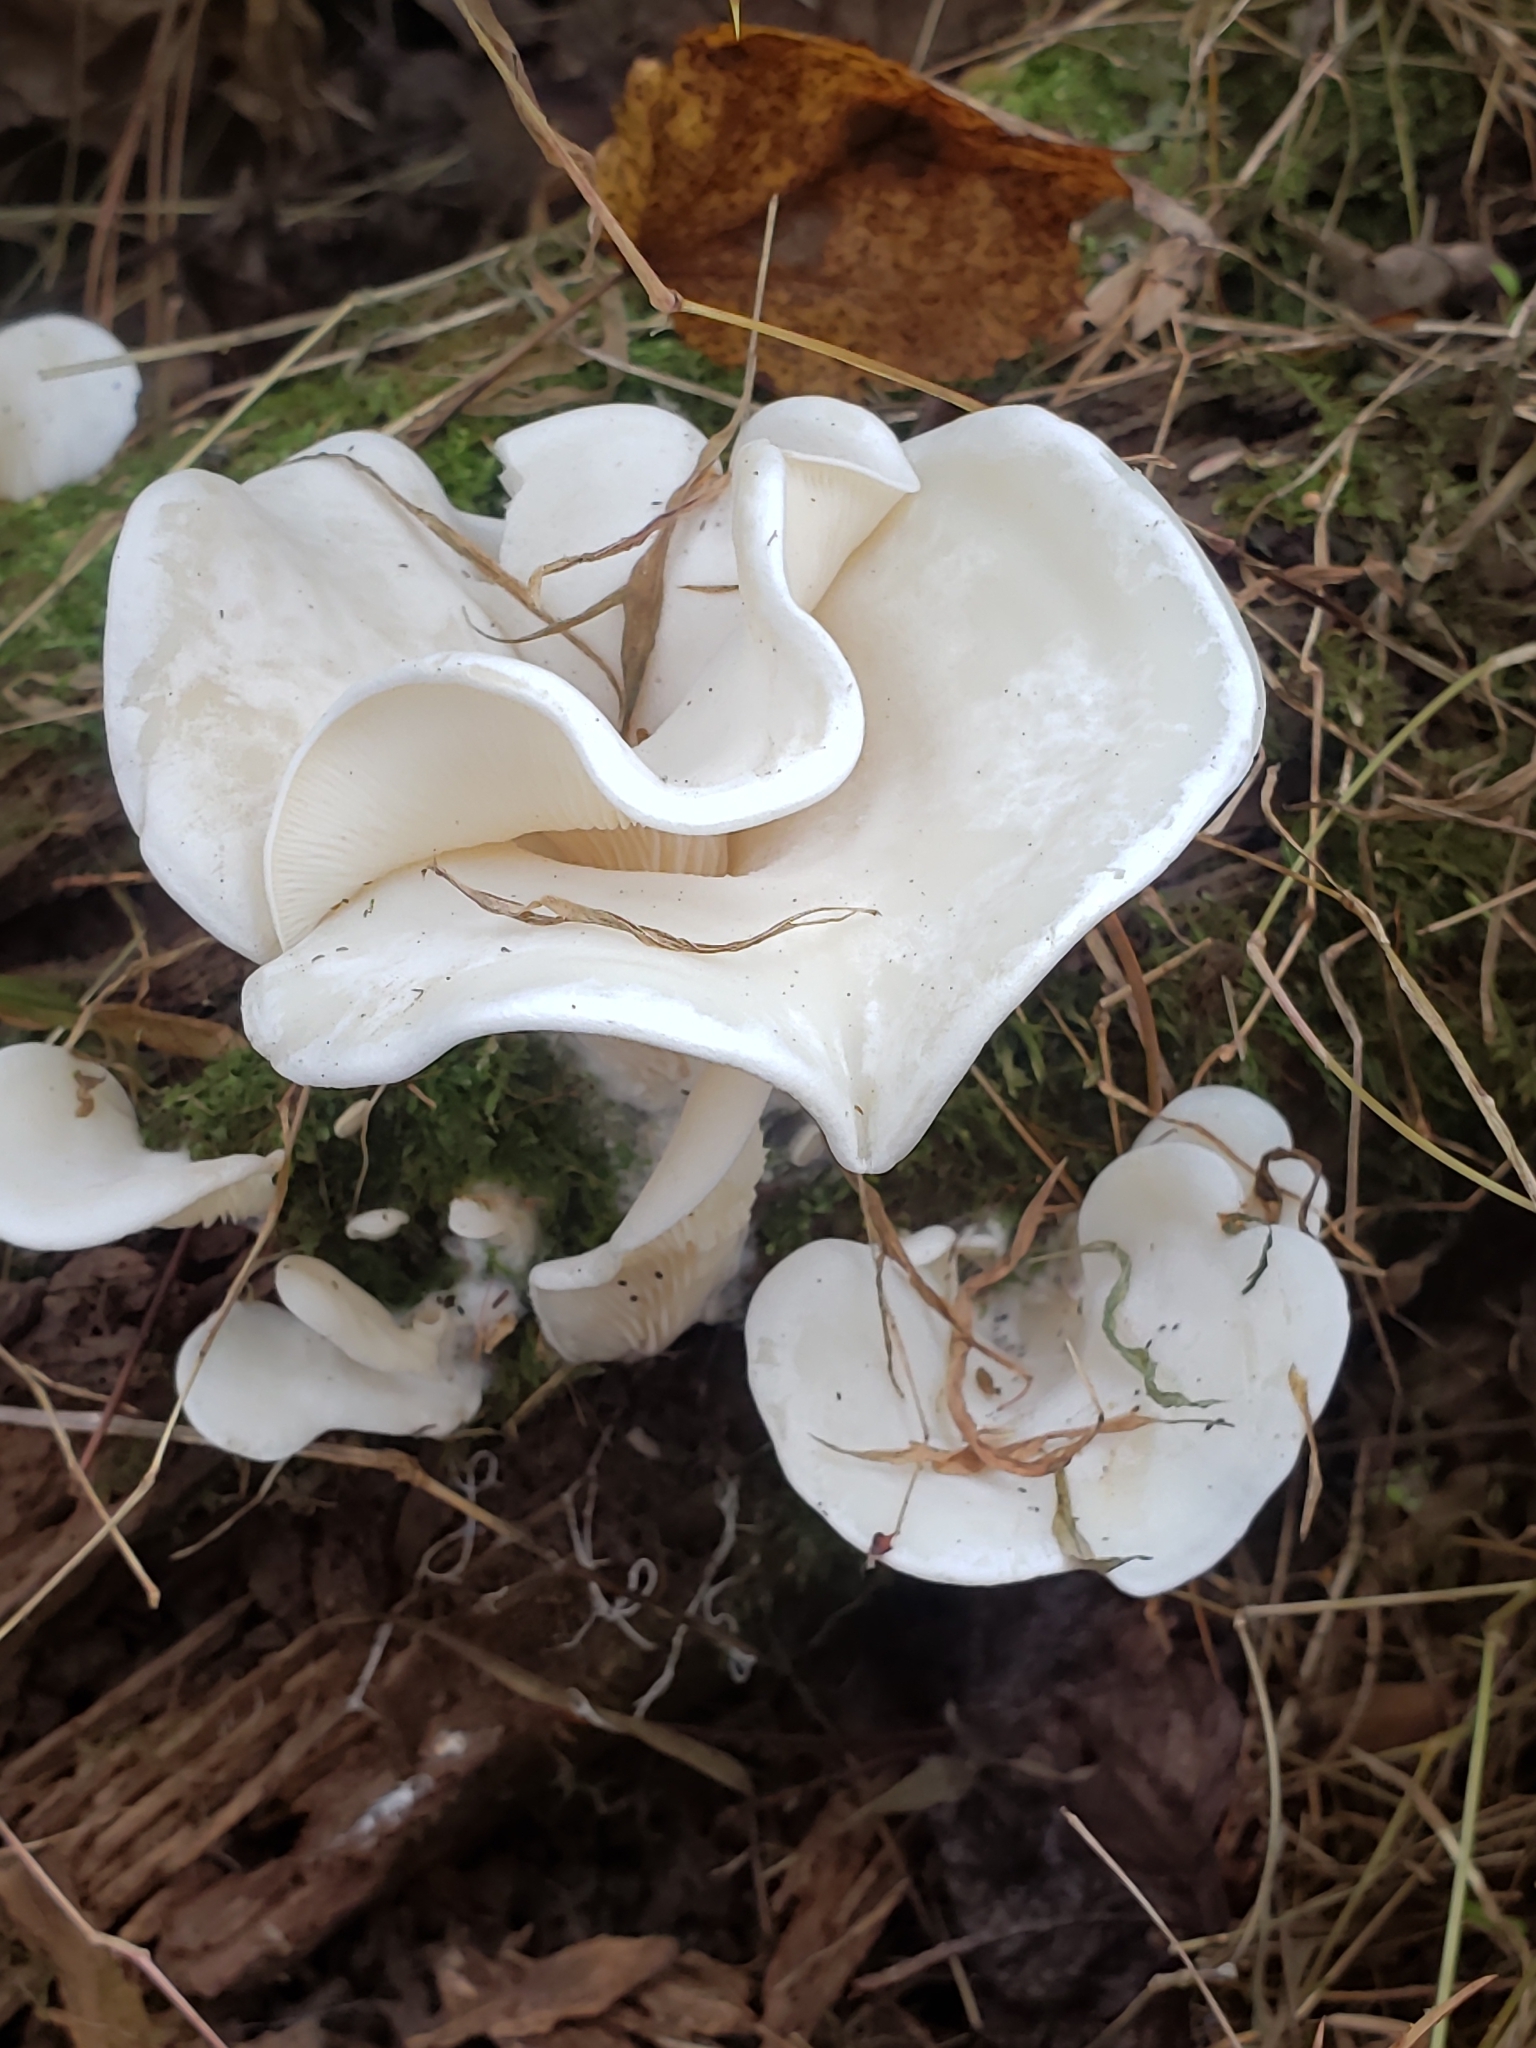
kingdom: Fungi
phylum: Basidiomycota
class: Agaricomycetes
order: Agaricales
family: Marasmiaceae
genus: Pleurocybella
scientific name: Pleurocybella porrigens
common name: Angel's wings
